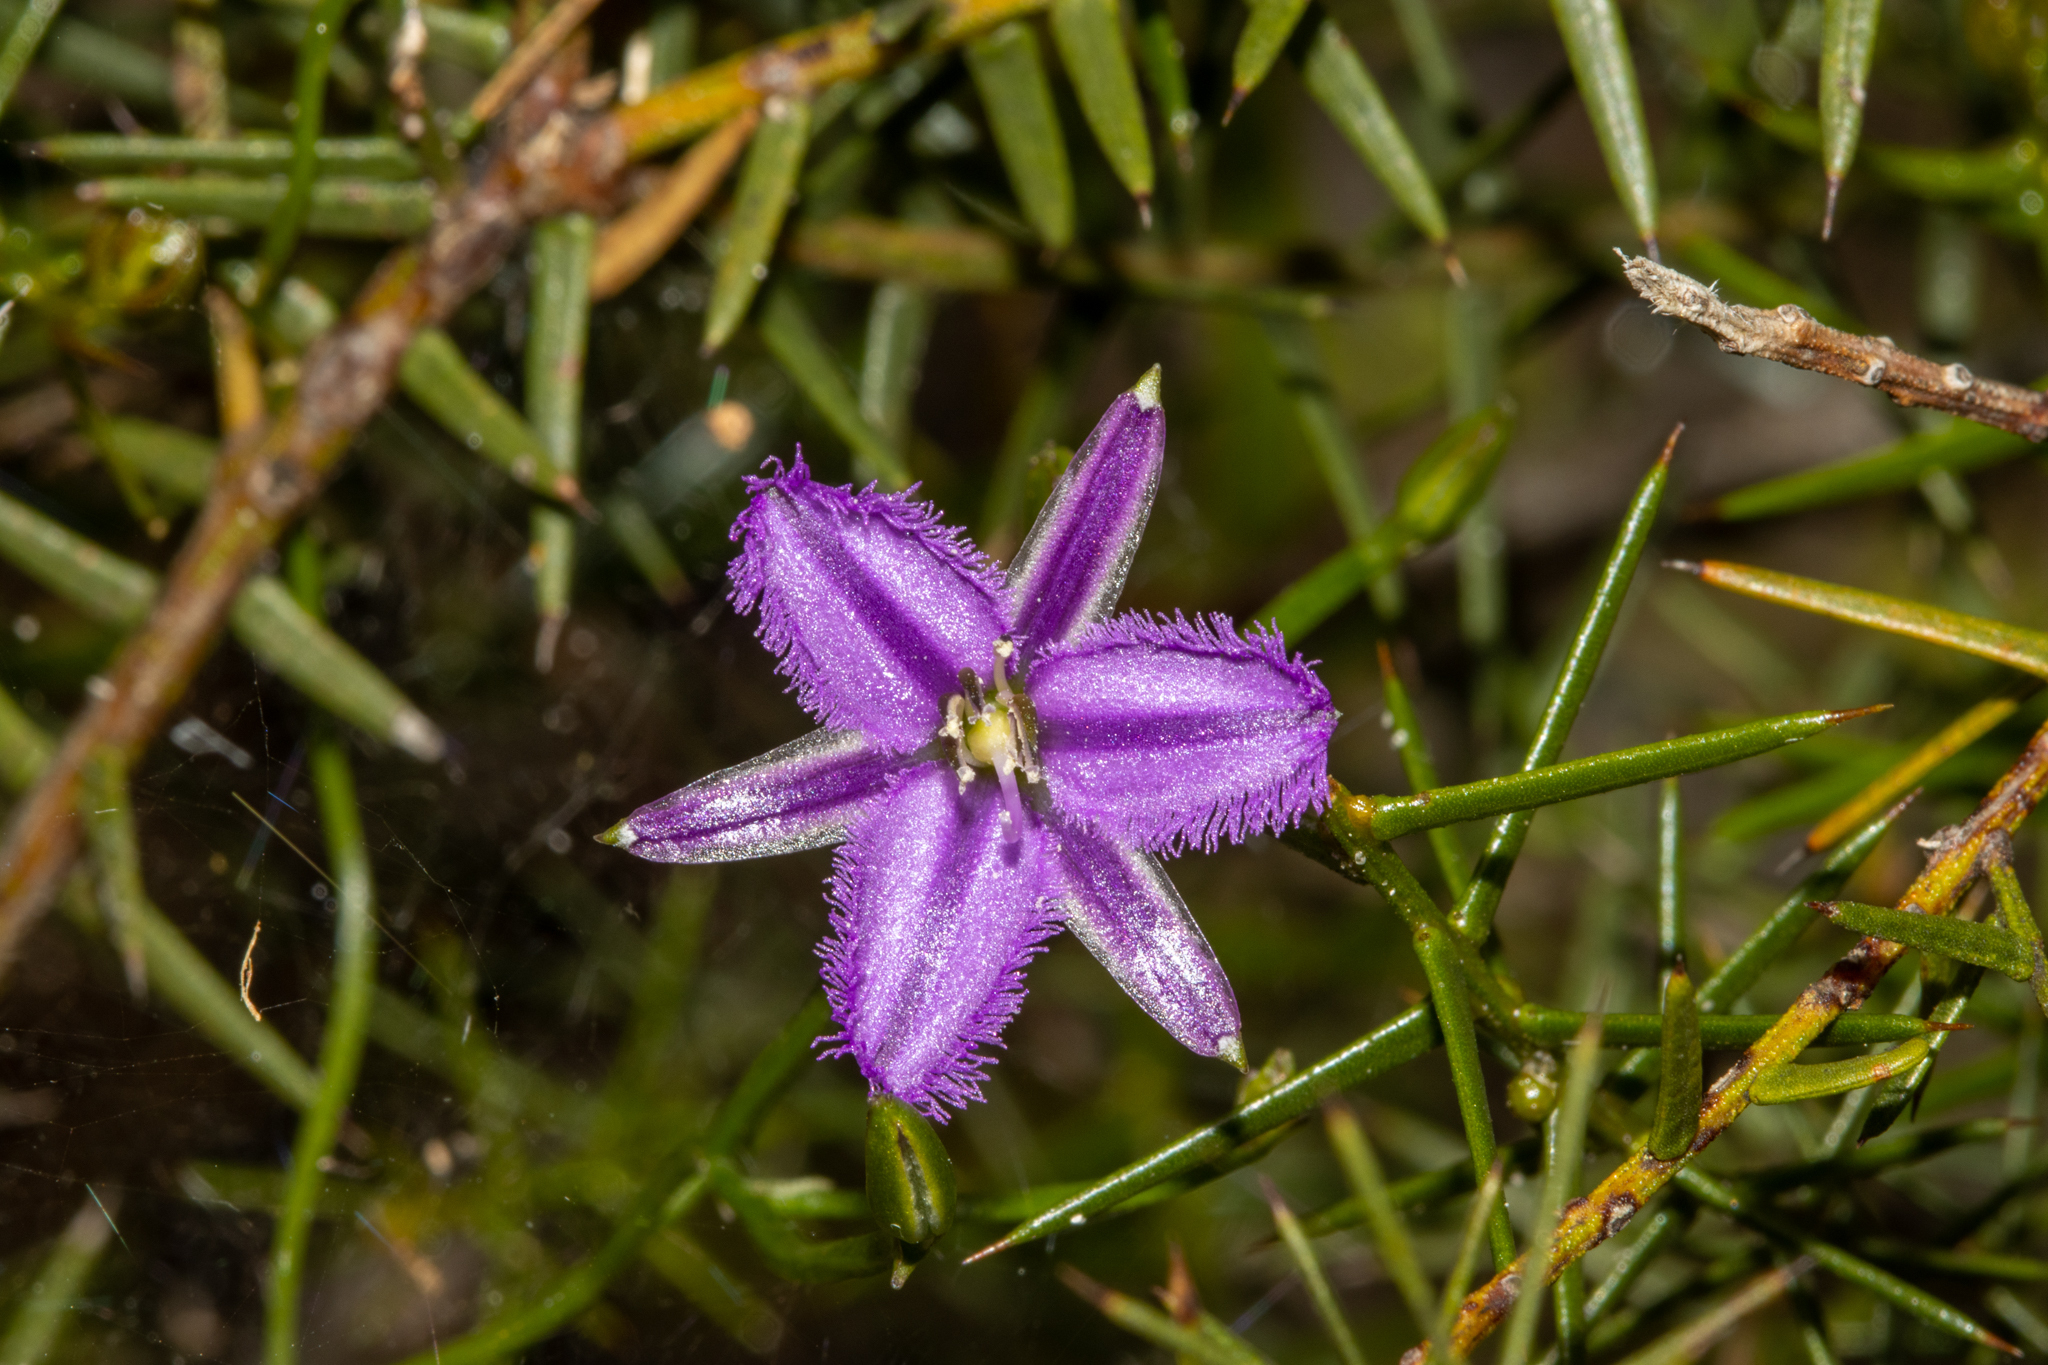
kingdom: Plantae
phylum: Tracheophyta
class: Liliopsida
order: Asparagales
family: Asparagaceae
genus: Thysanotus
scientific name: Thysanotus patersonii
